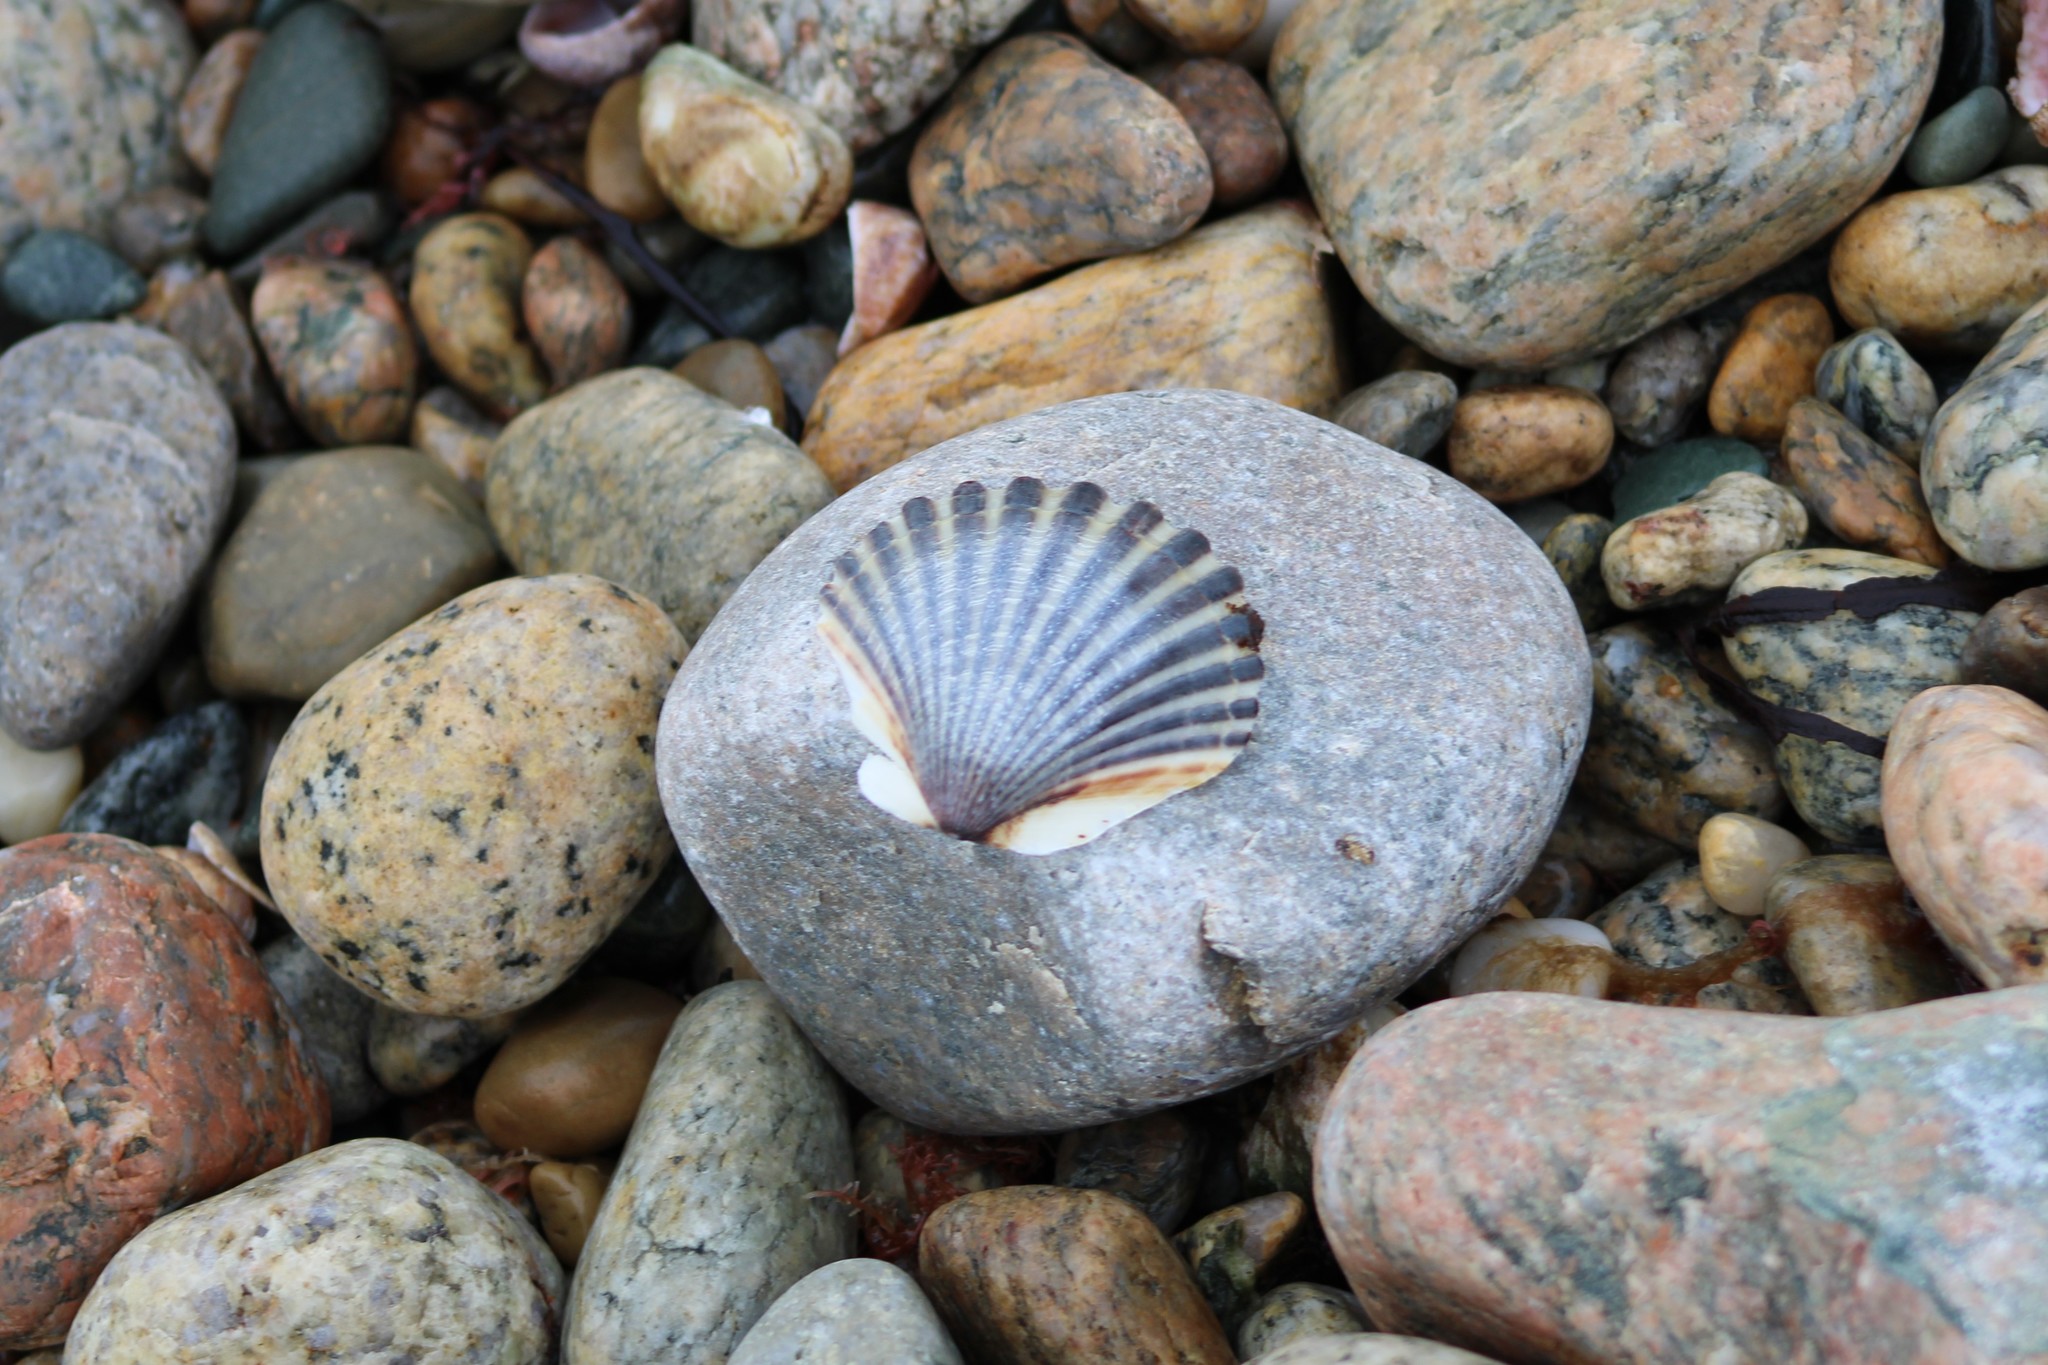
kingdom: Animalia
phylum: Mollusca
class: Bivalvia
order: Pectinida
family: Pectinidae
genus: Argopecten
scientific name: Argopecten irradians
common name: Atlantic bay scallop
